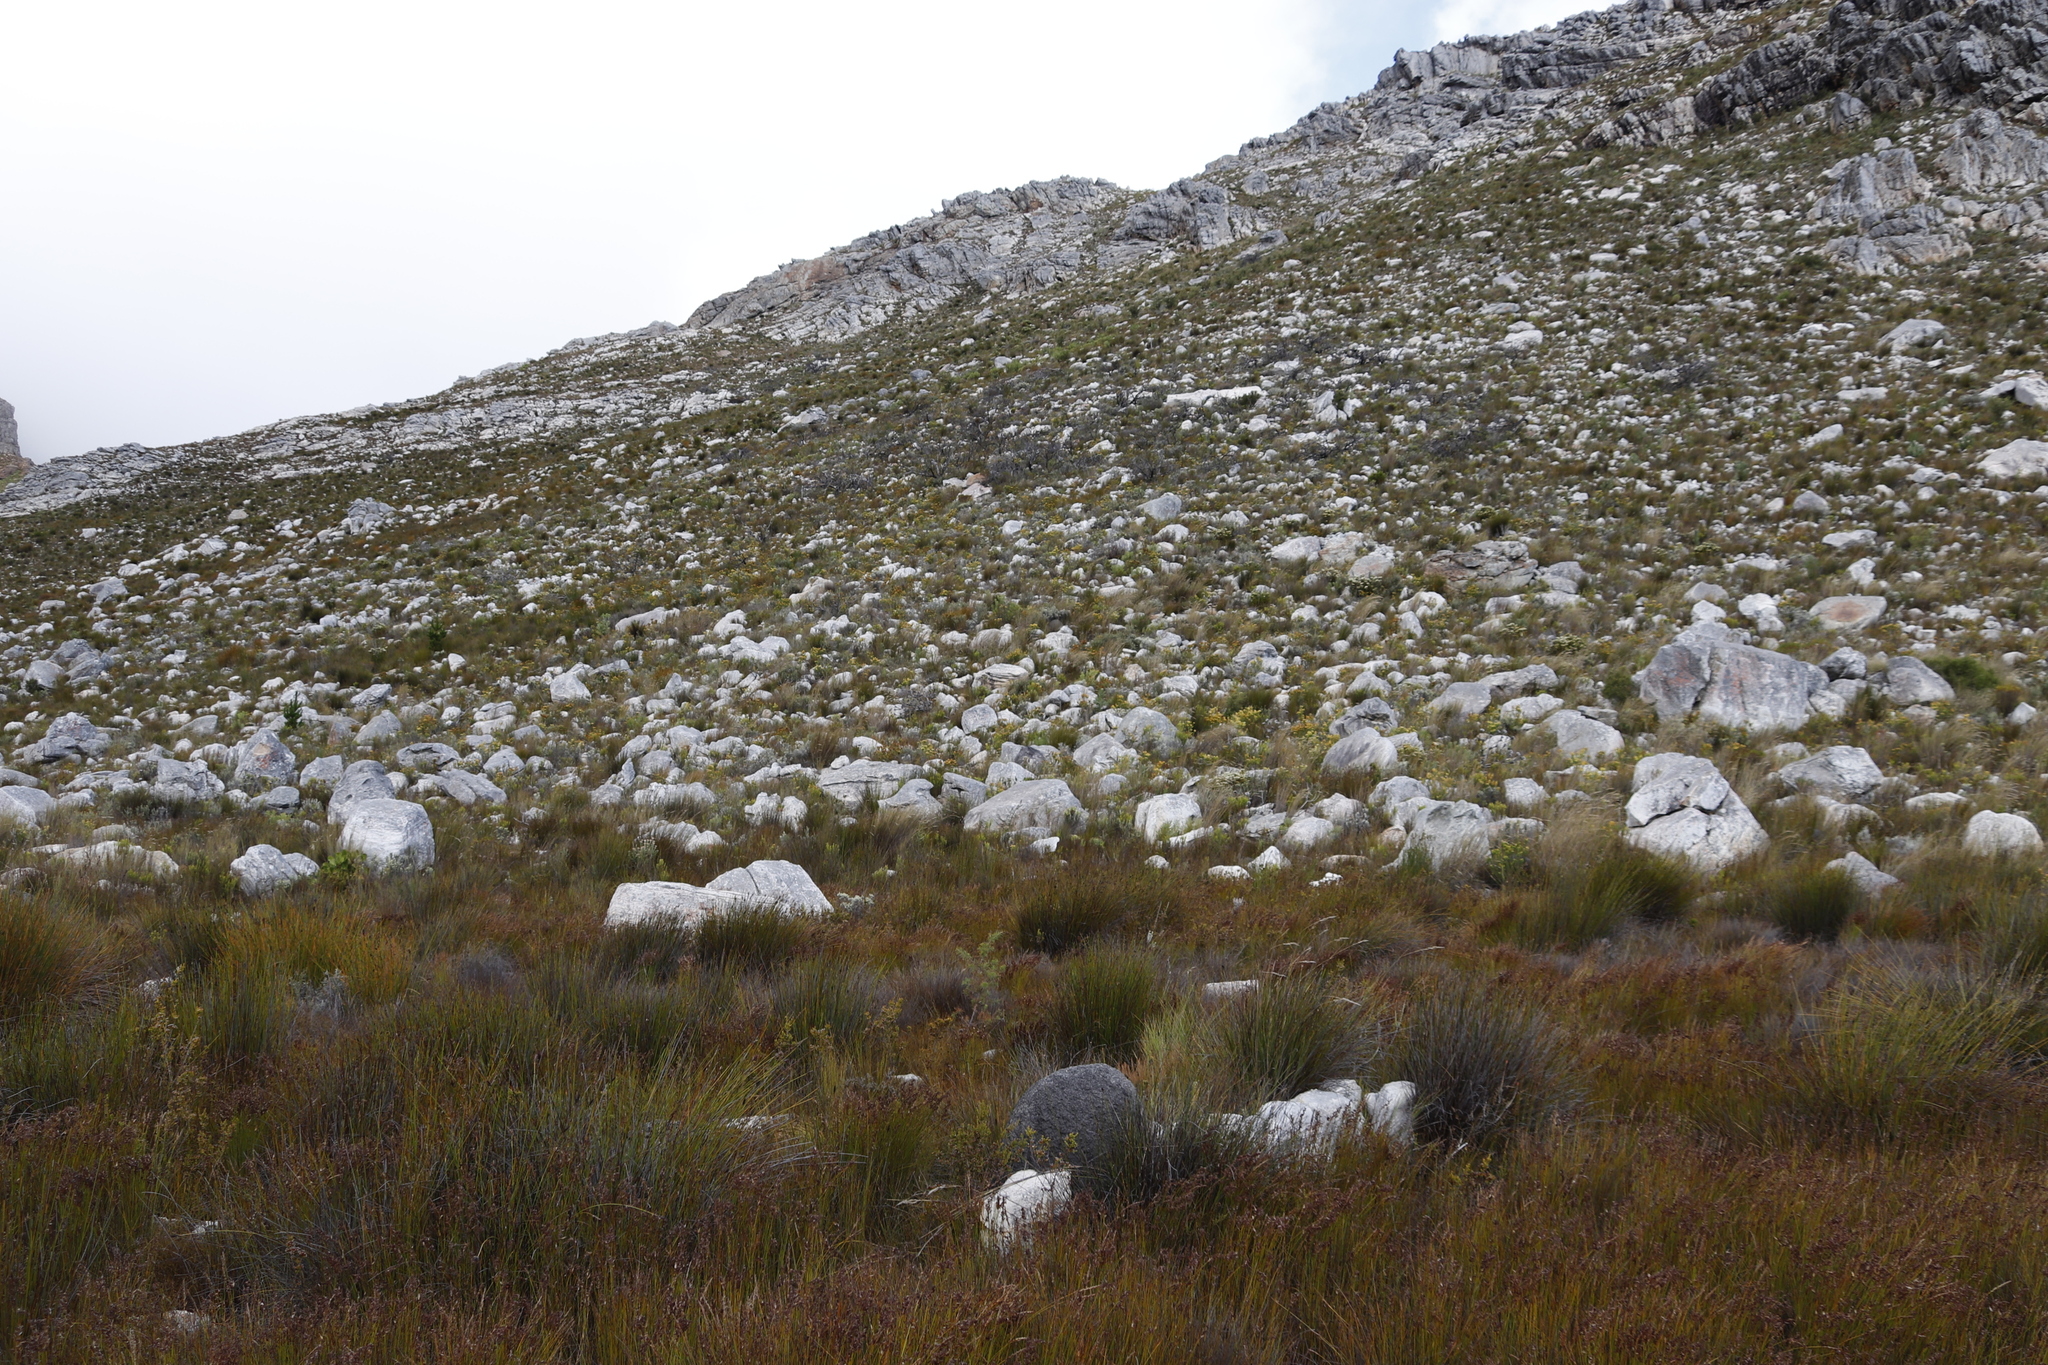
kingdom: Plantae
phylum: Tracheophyta
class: Magnoliopsida
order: Proteales
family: Proteaceae
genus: Hakea
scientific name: Hakea sericea
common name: Needle bush
